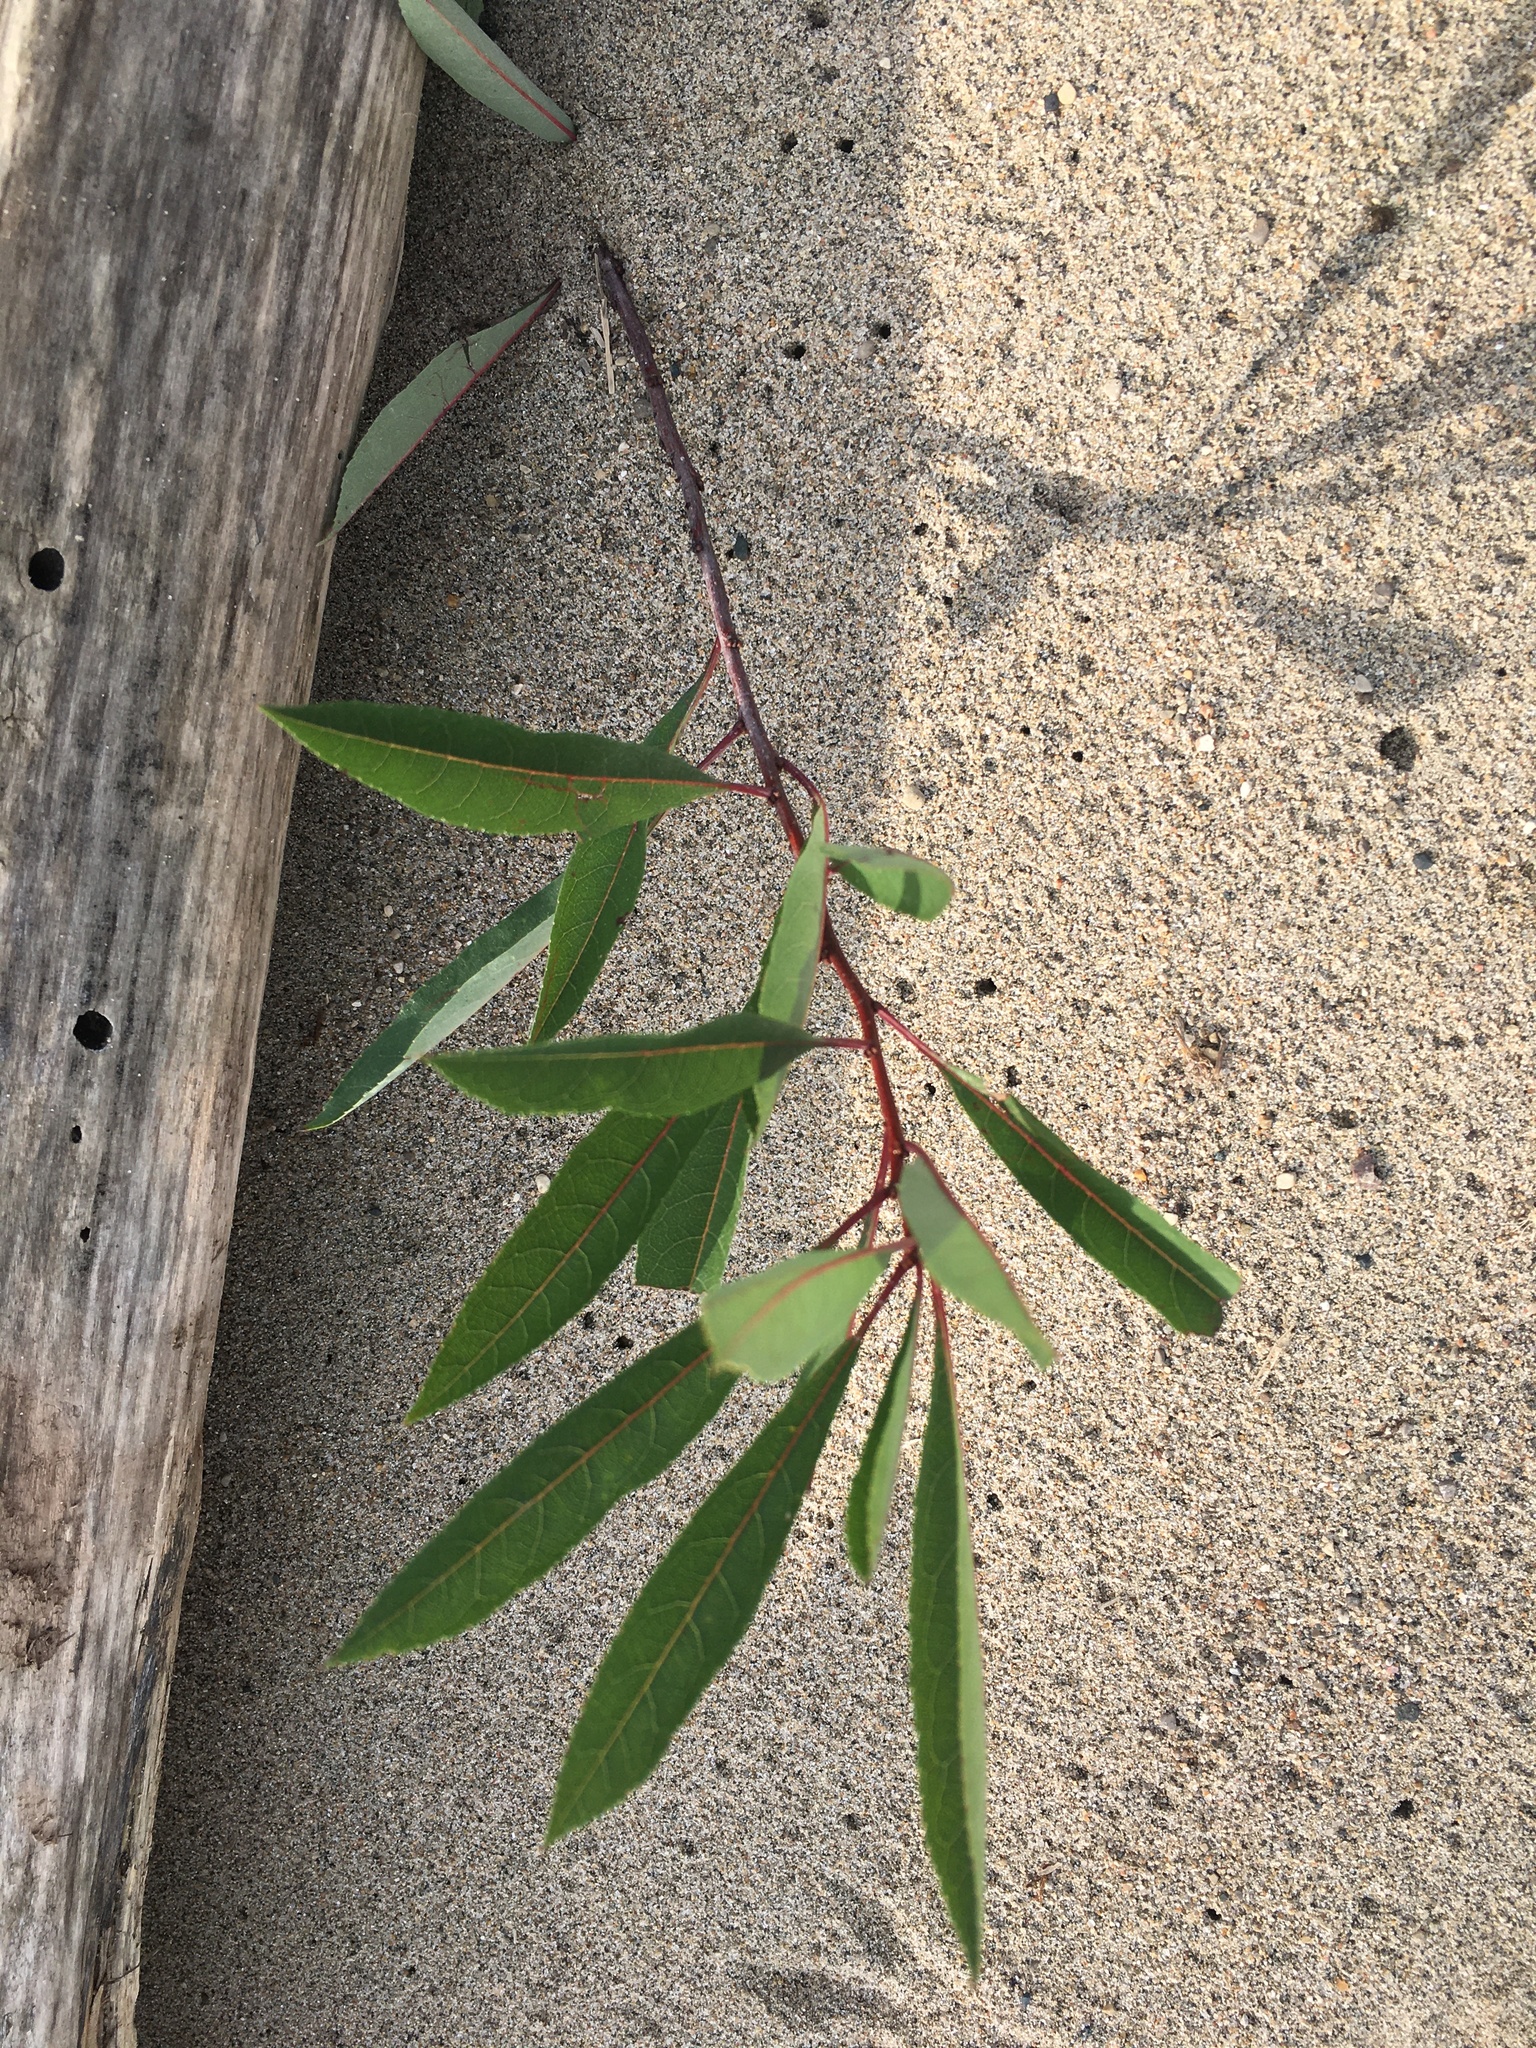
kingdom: Plantae
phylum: Tracheophyta
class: Magnoliopsida
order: Rosales
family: Rosaceae
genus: Prunus
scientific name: Prunus pumila
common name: Dwarf cherry
